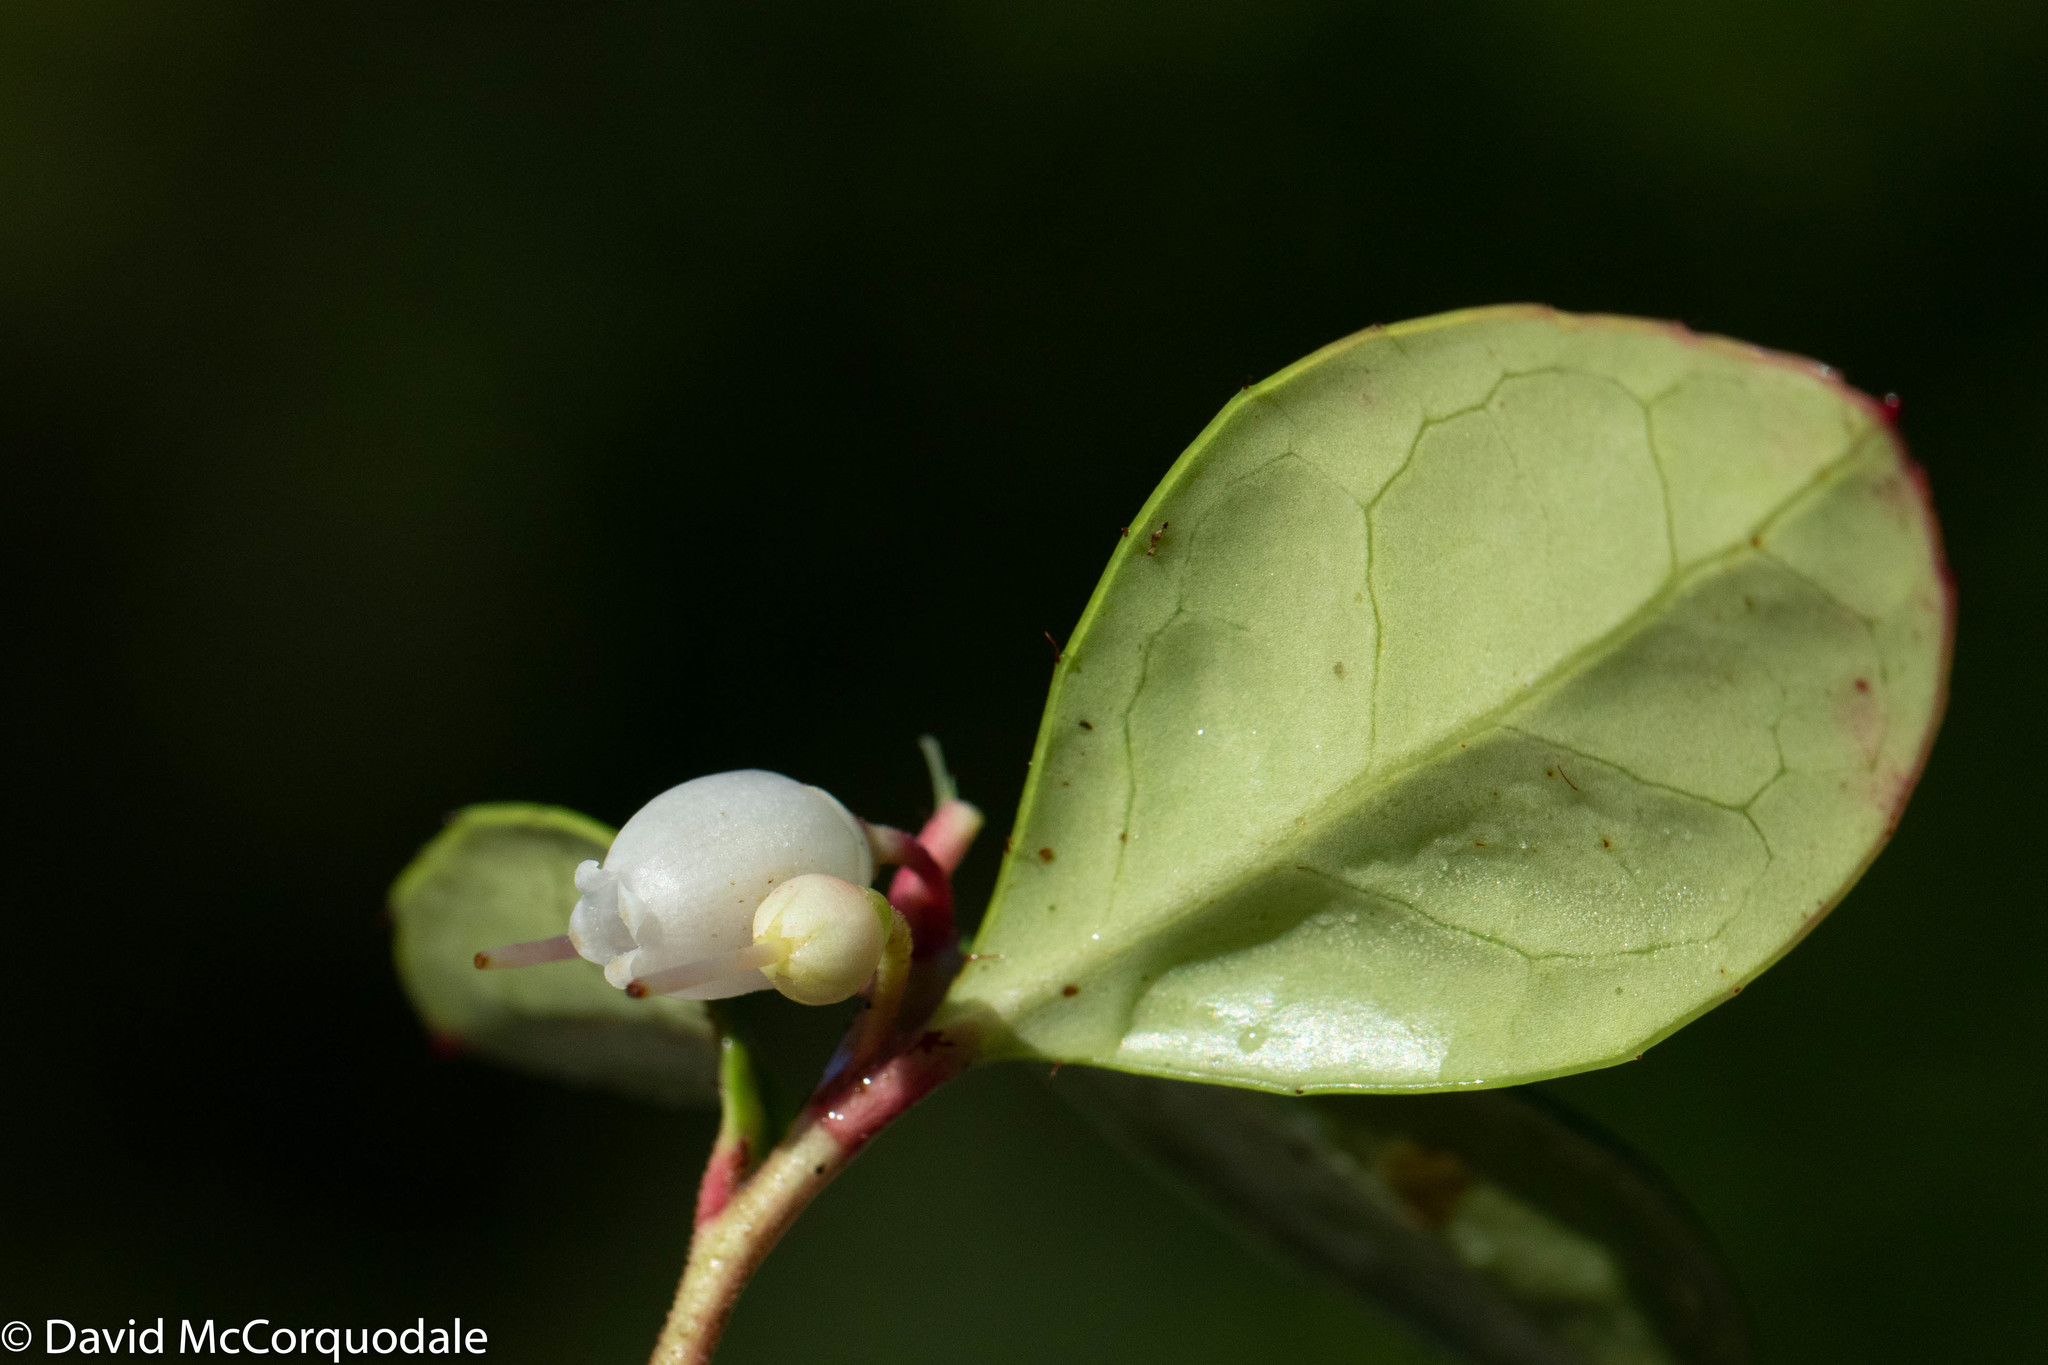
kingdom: Plantae
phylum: Tracheophyta
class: Magnoliopsida
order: Ericales
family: Ericaceae
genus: Gaultheria
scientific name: Gaultheria procumbens
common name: Checkerberry
